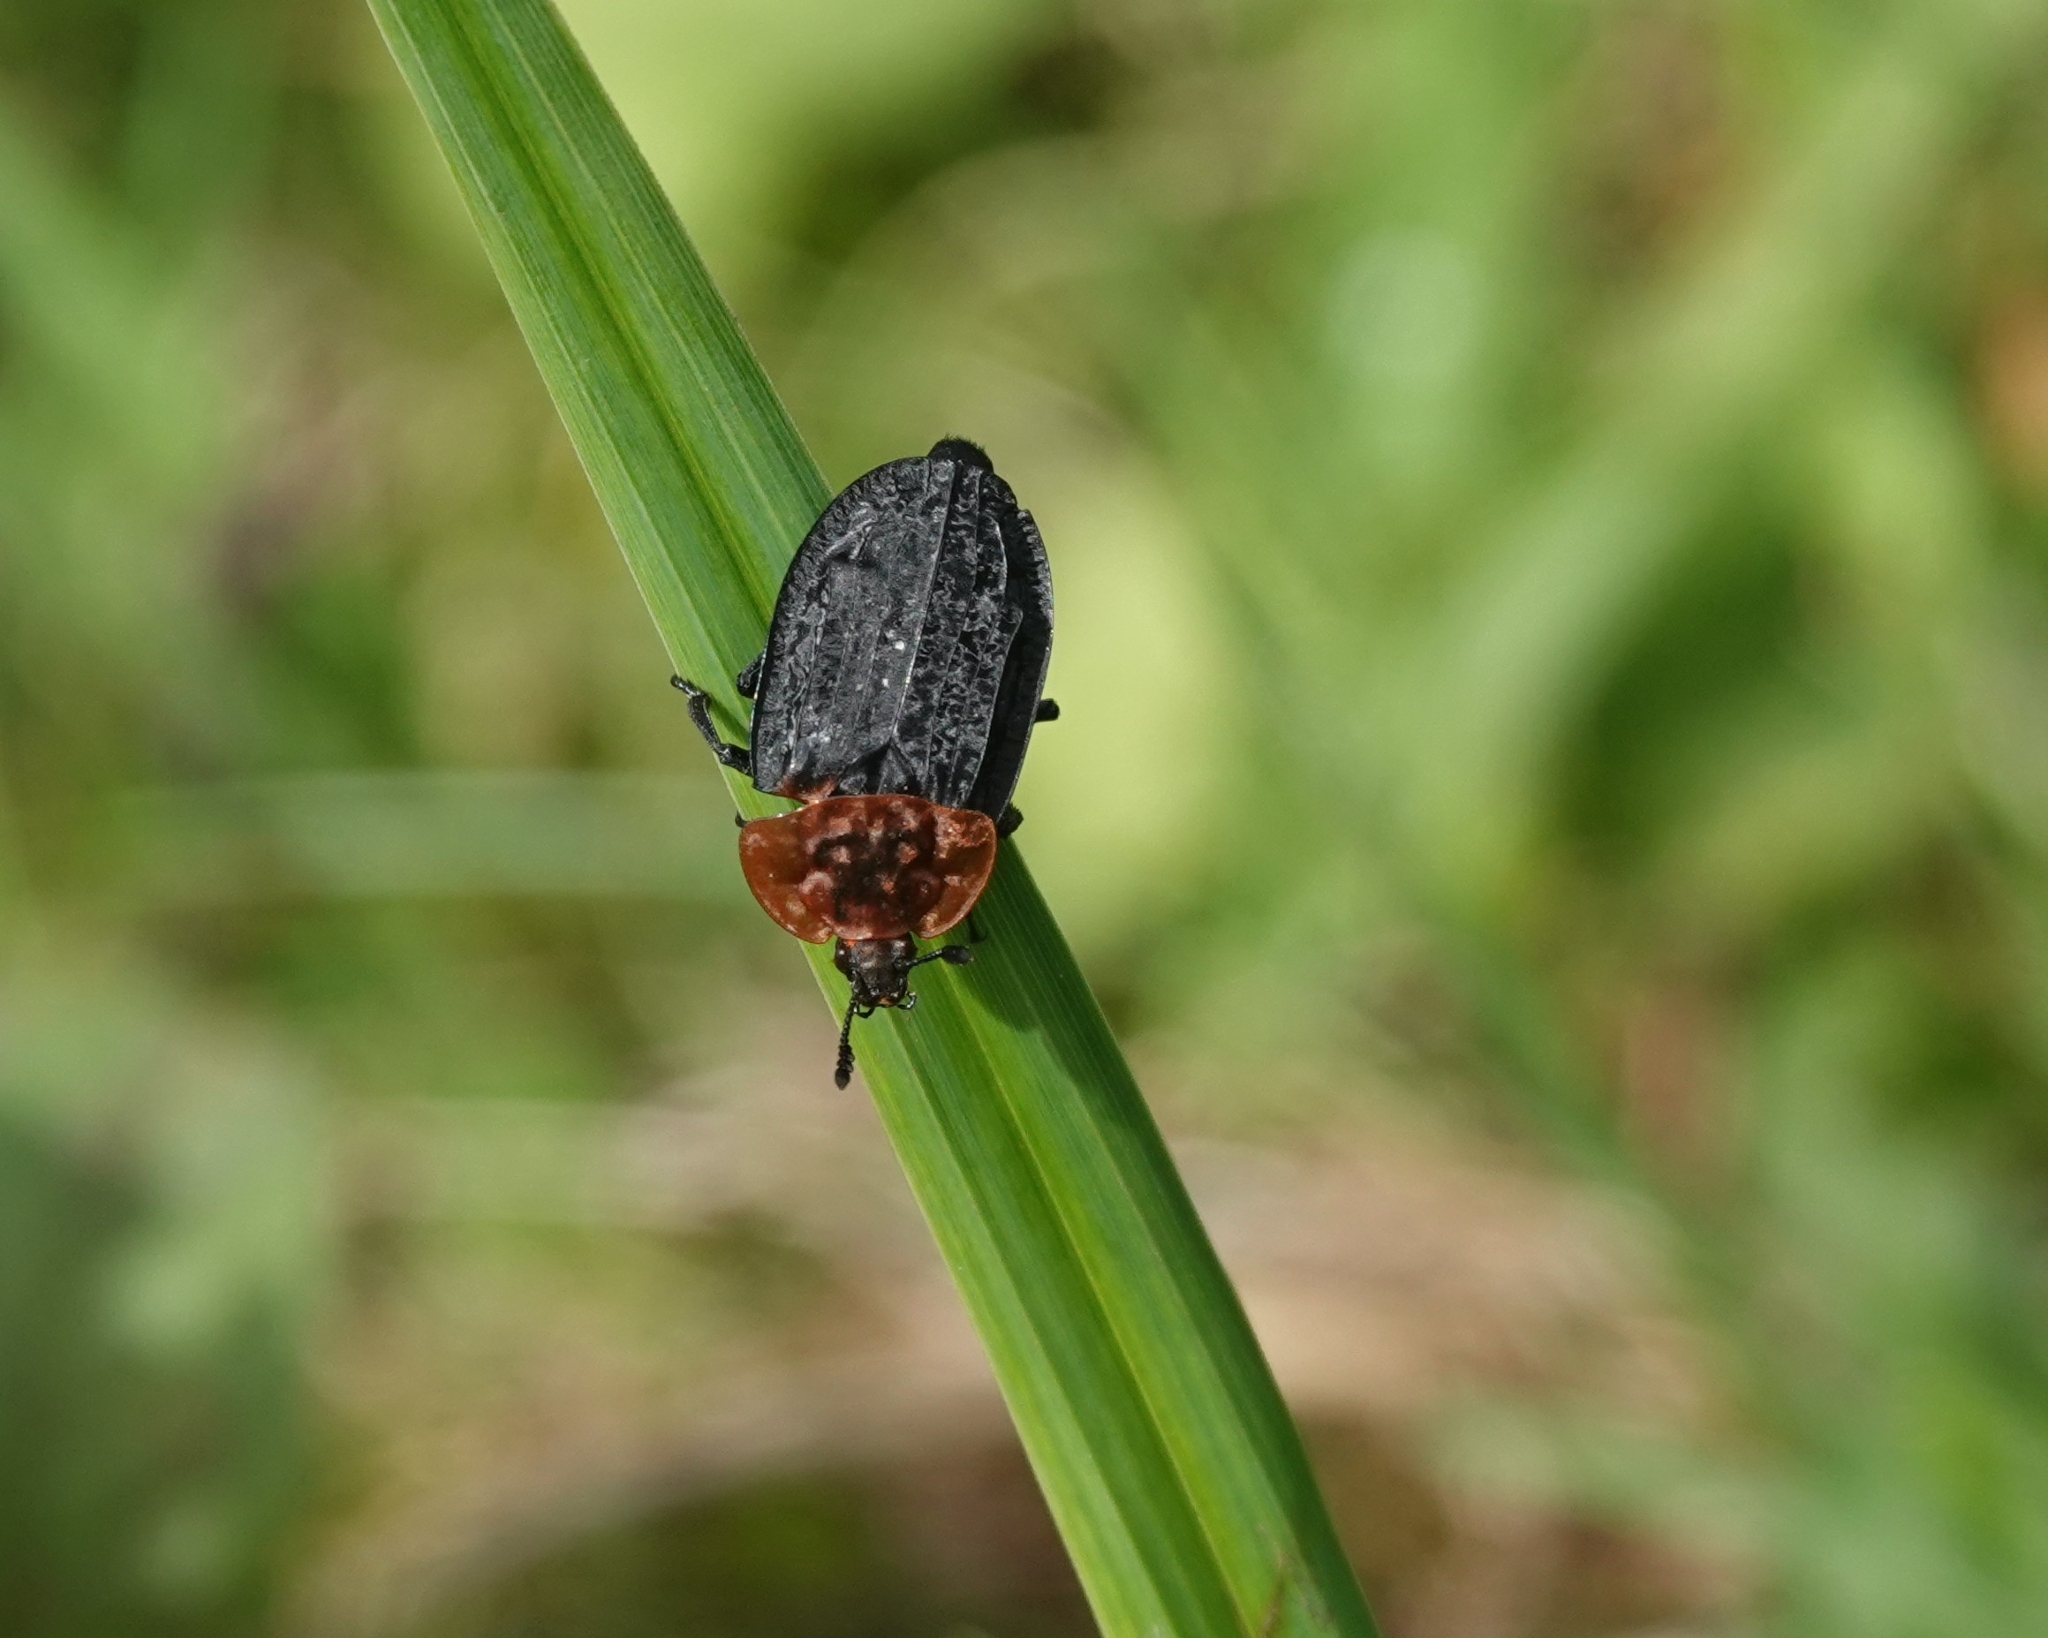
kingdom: Animalia
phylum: Arthropoda
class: Insecta
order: Coleoptera
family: Staphylinidae
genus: Oiceoptoma
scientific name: Oiceoptoma thoracicum
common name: Red-breasted carrion beetle
